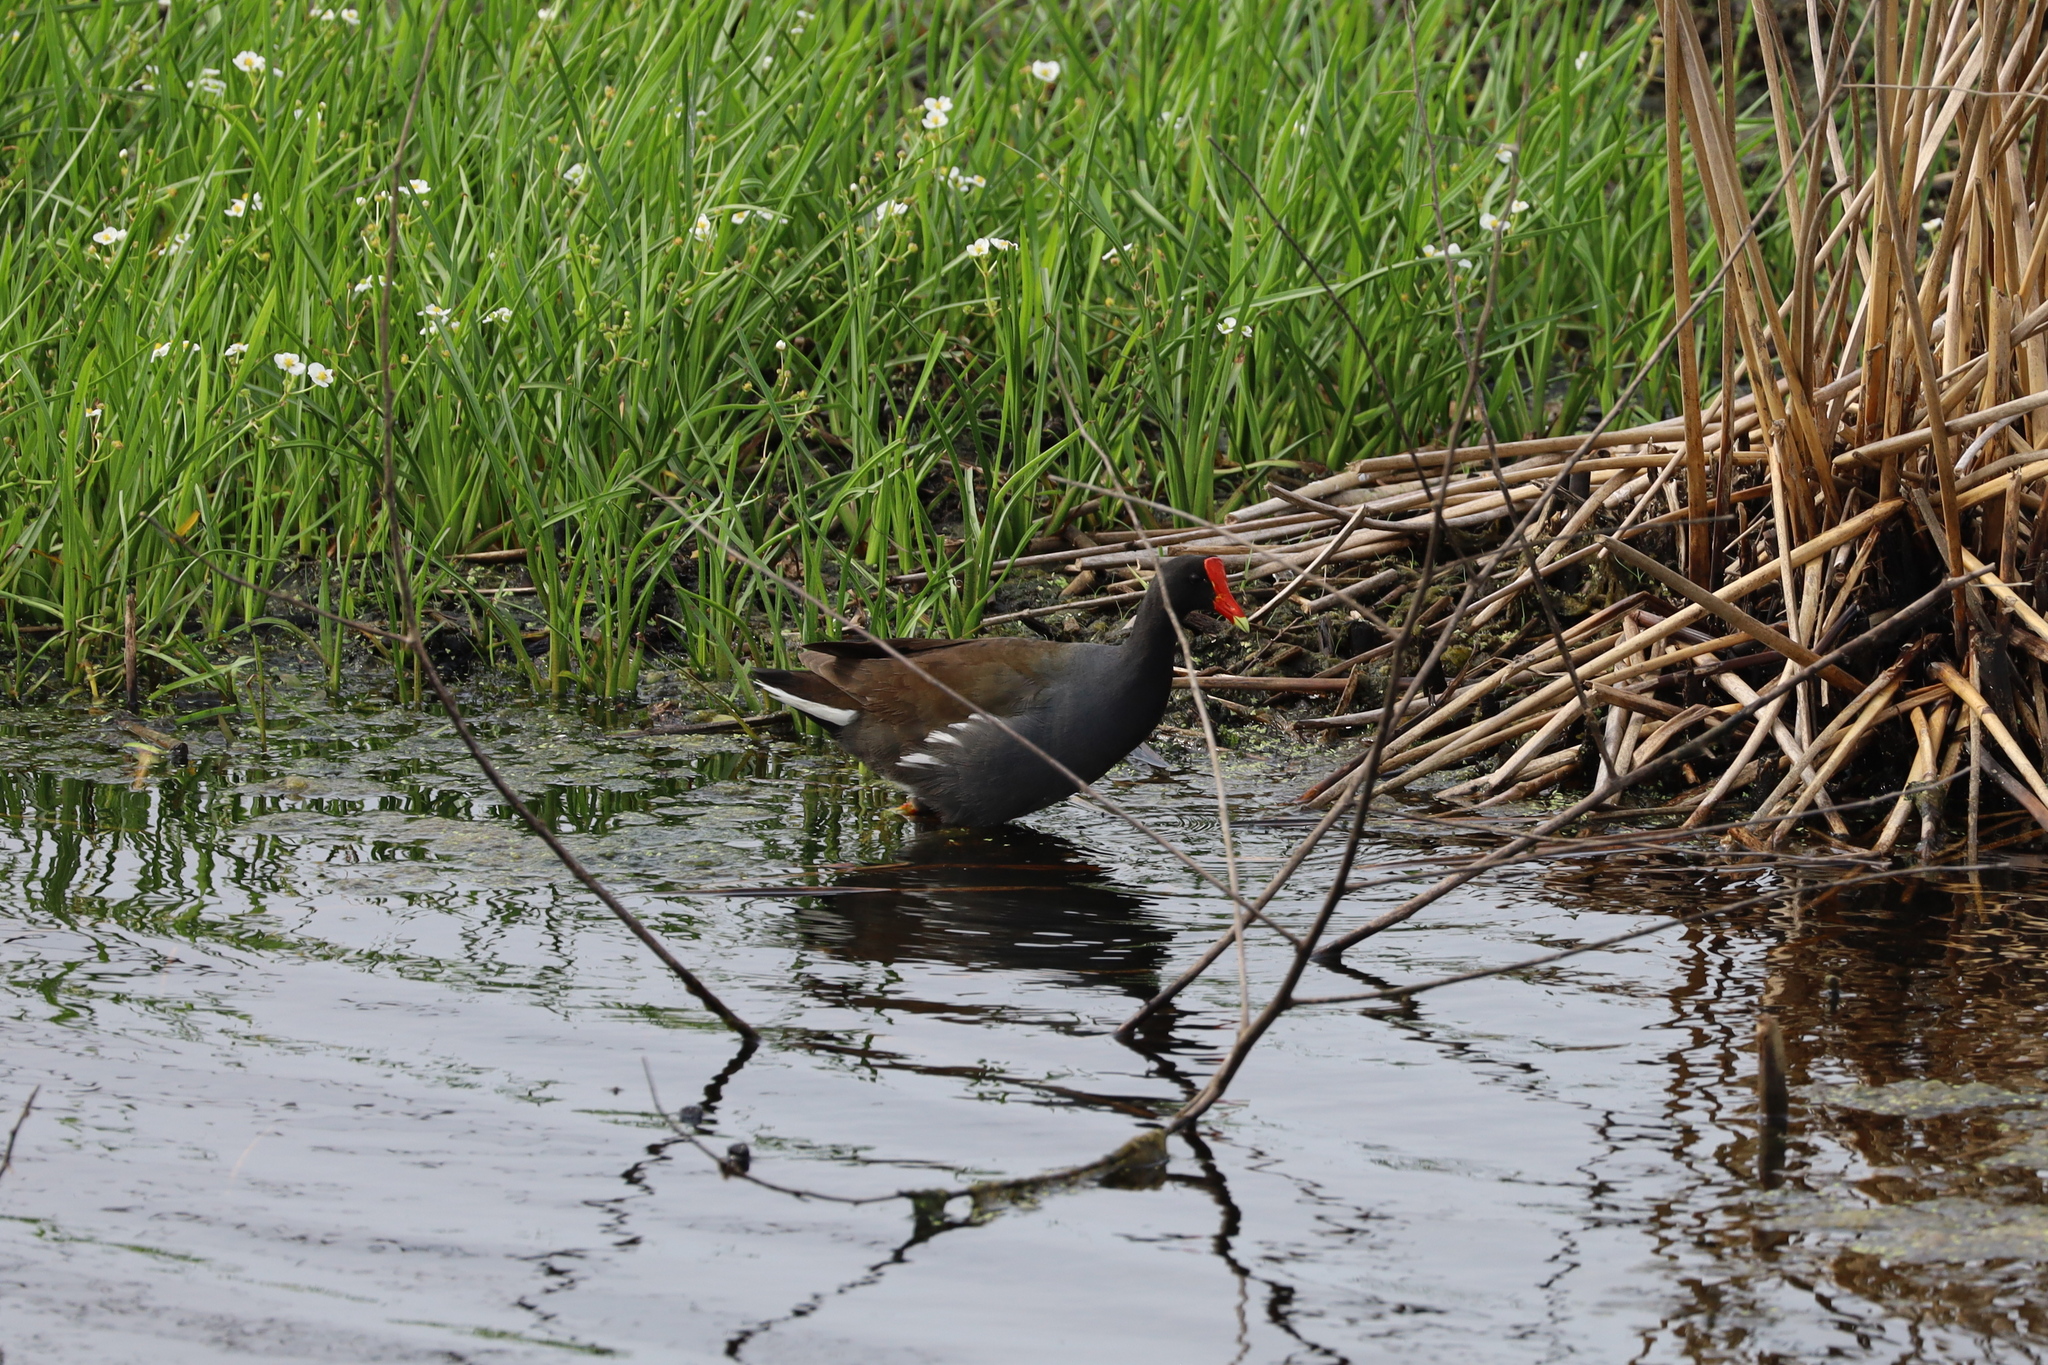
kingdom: Animalia
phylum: Chordata
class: Aves
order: Gruiformes
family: Rallidae
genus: Gallinula
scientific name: Gallinula chloropus
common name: Common moorhen
